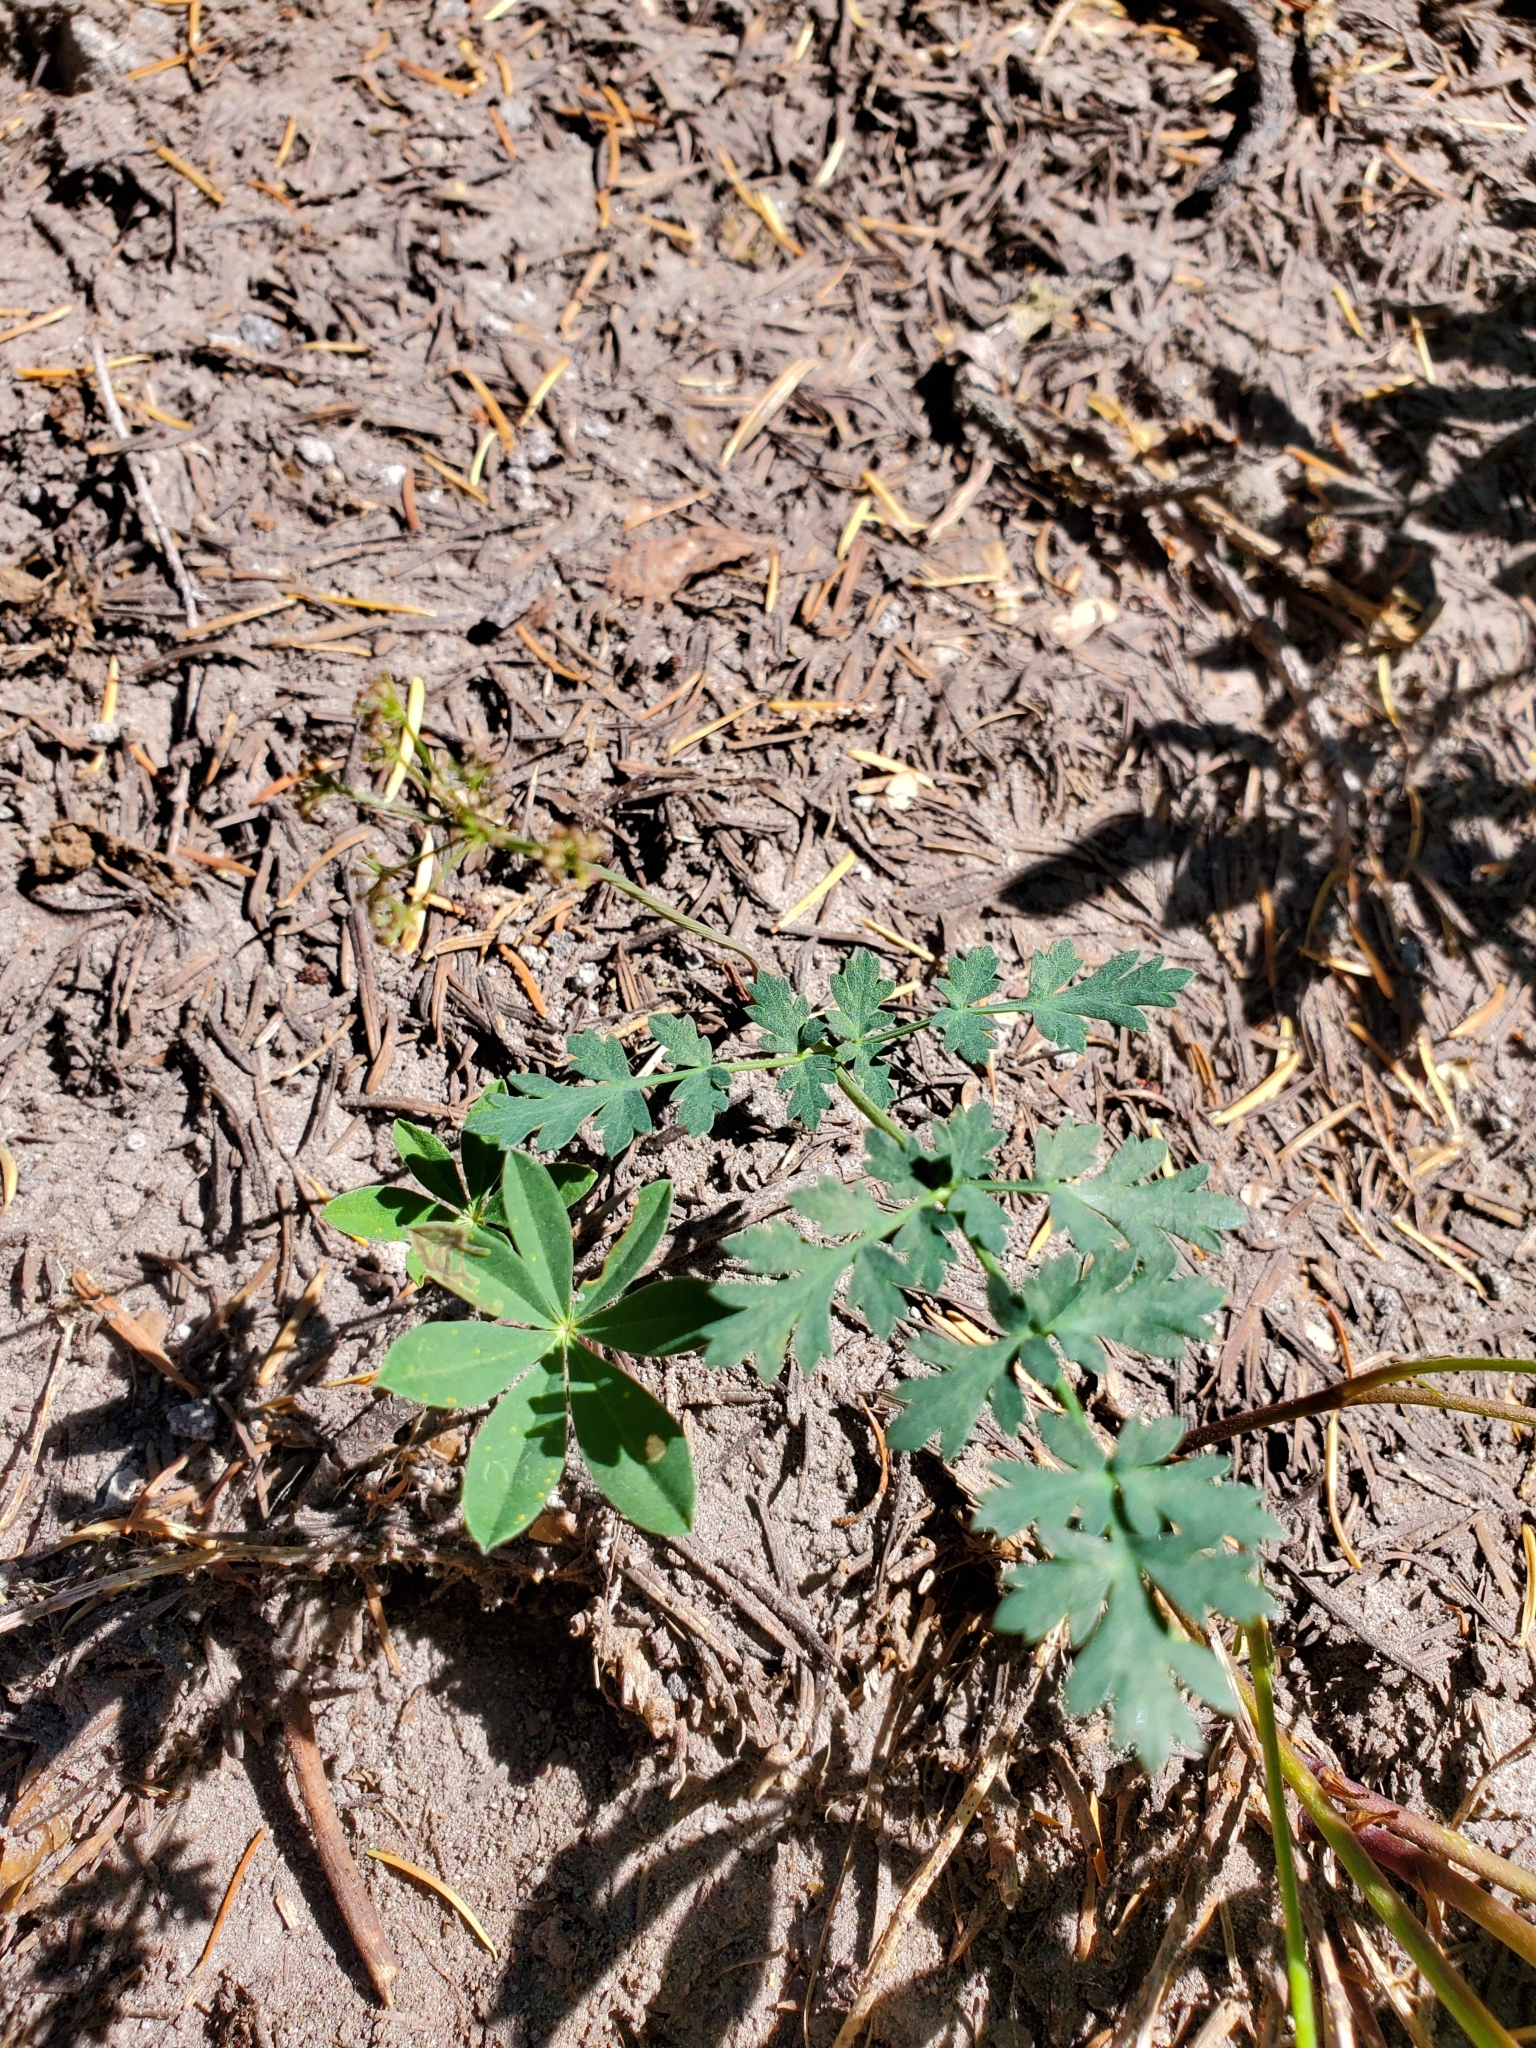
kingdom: Plantae
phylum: Tracheophyta
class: Magnoliopsida
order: Apiales
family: Apiaceae
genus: Lomatium
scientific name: Lomatium martindalei
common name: Cascade desert-parsley
